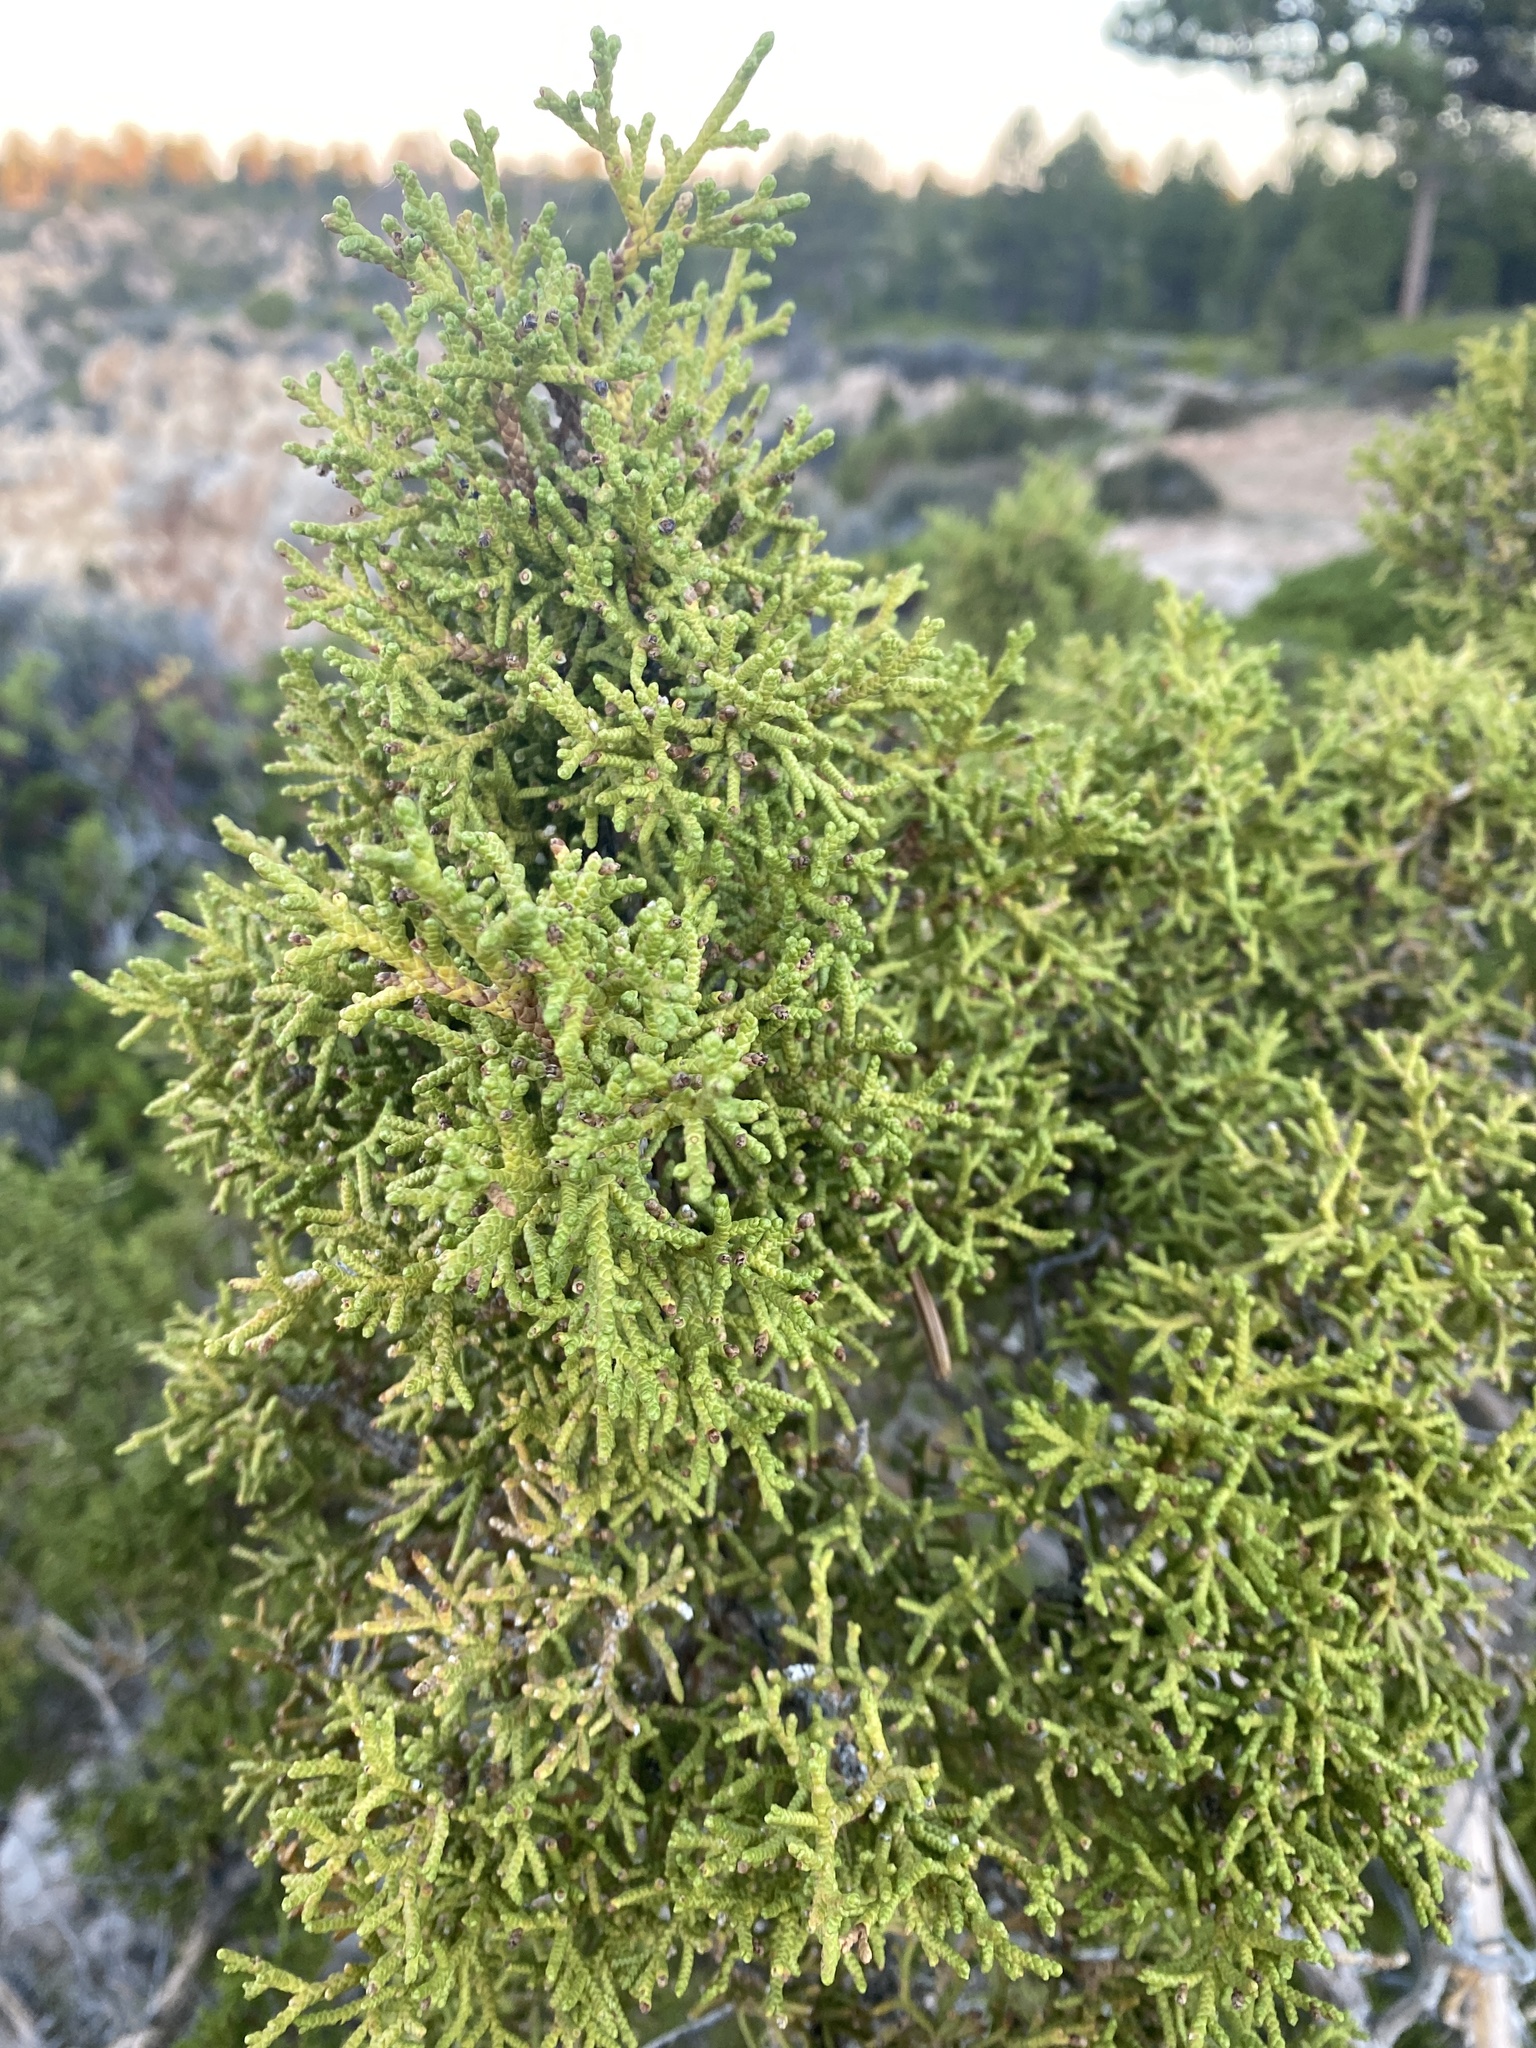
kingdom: Plantae
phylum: Tracheophyta
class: Pinopsida
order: Pinales
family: Cupressaceae
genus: Juniperus
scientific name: Juniperus osteosperma
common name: Utah juniper
